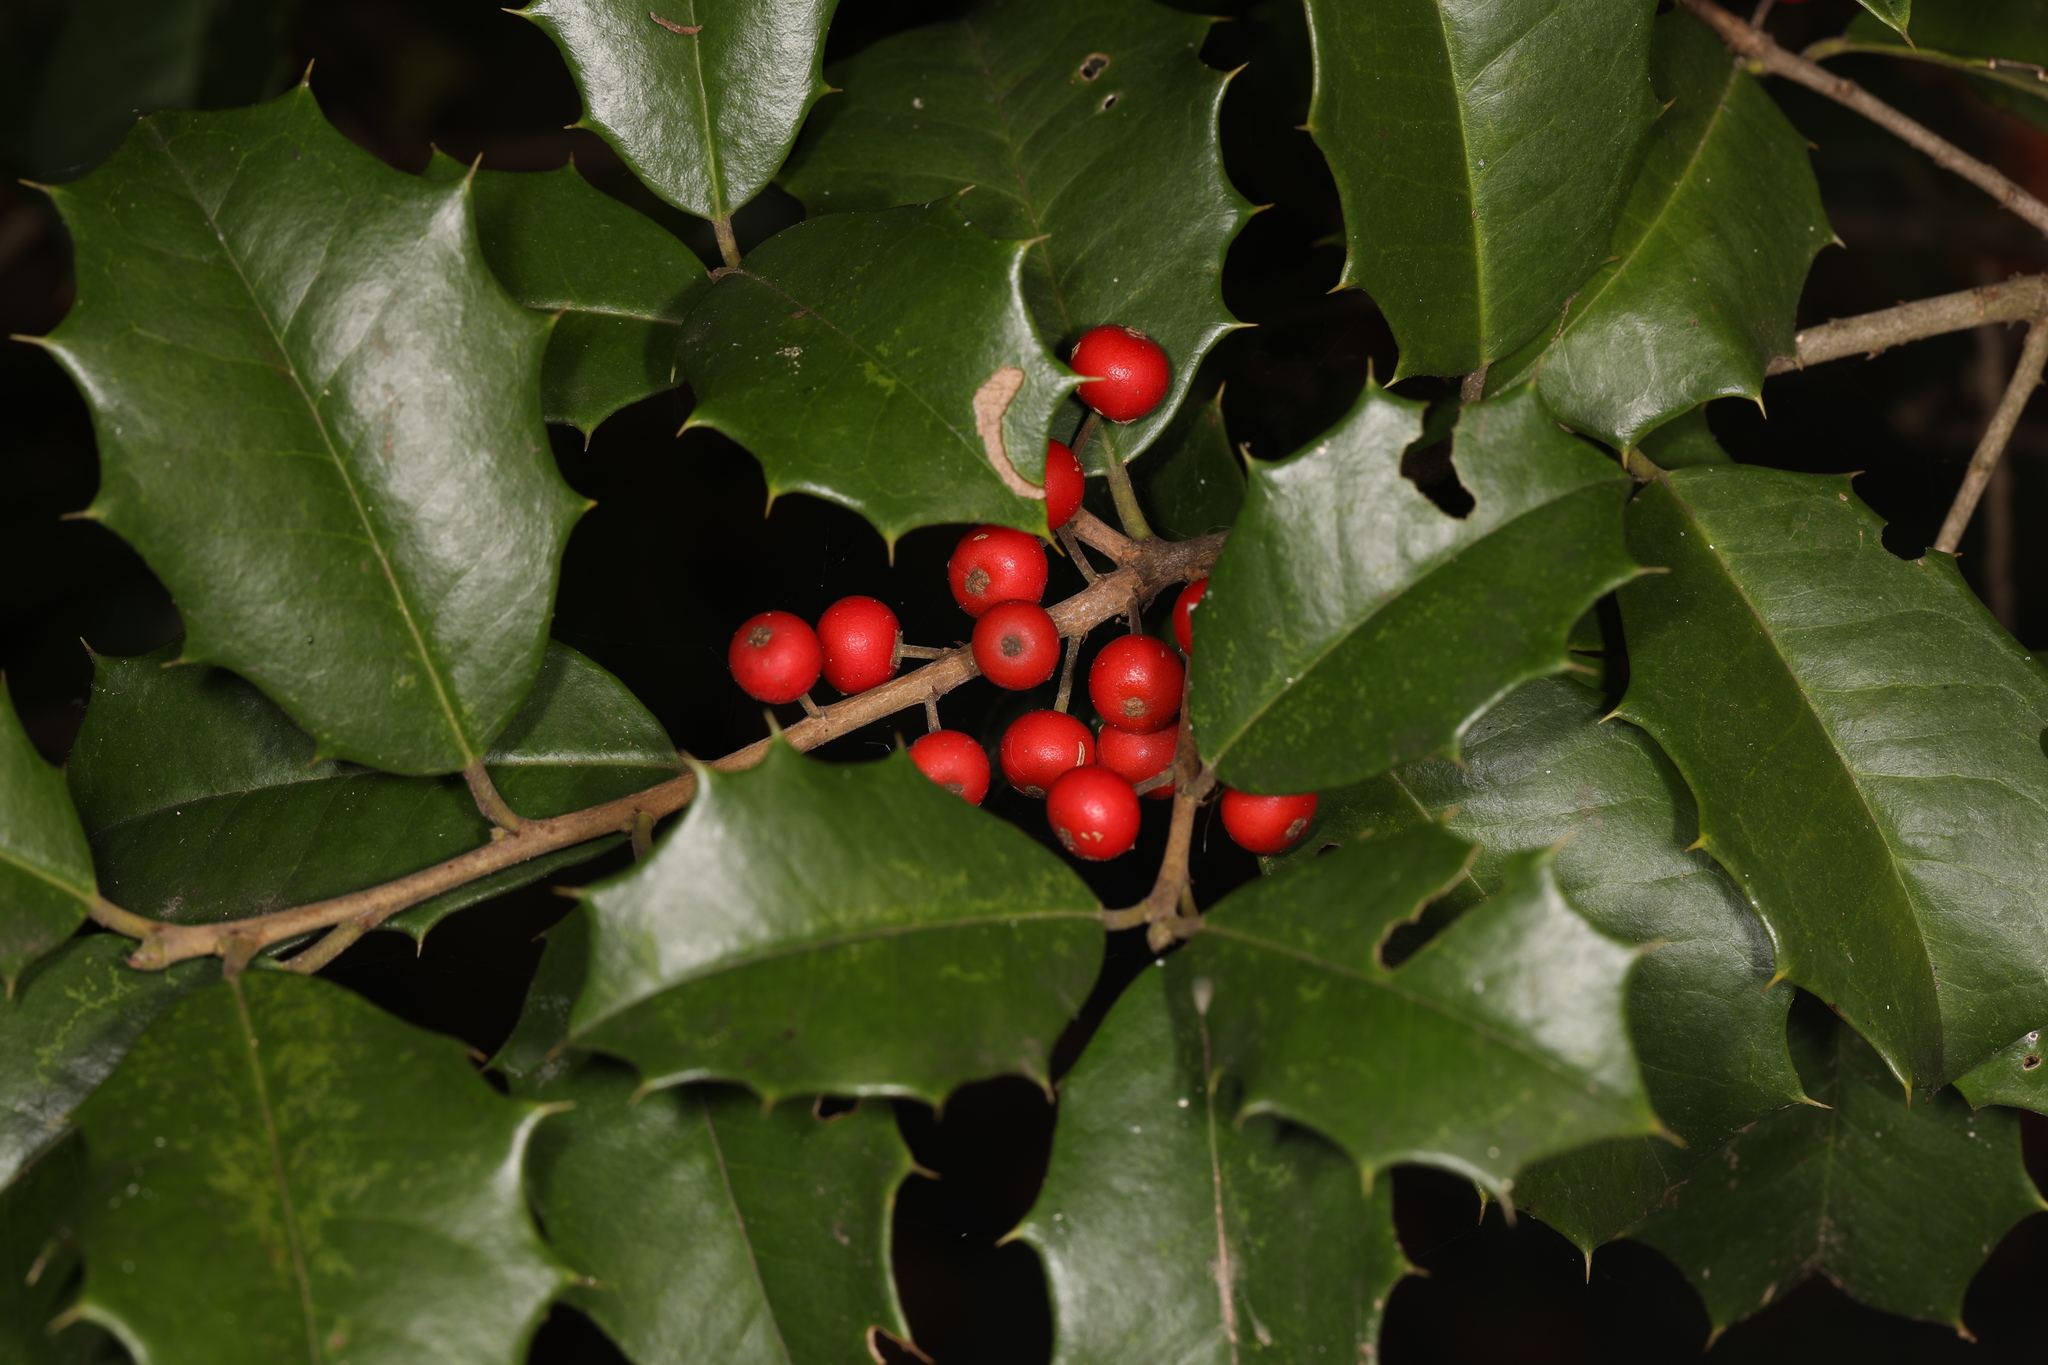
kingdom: Plantae
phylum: Tracheophyta
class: Magnoliopsida
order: Aquifoliales
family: Aquifoliaceae
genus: Ilex
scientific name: Ilex opaca
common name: American holly
